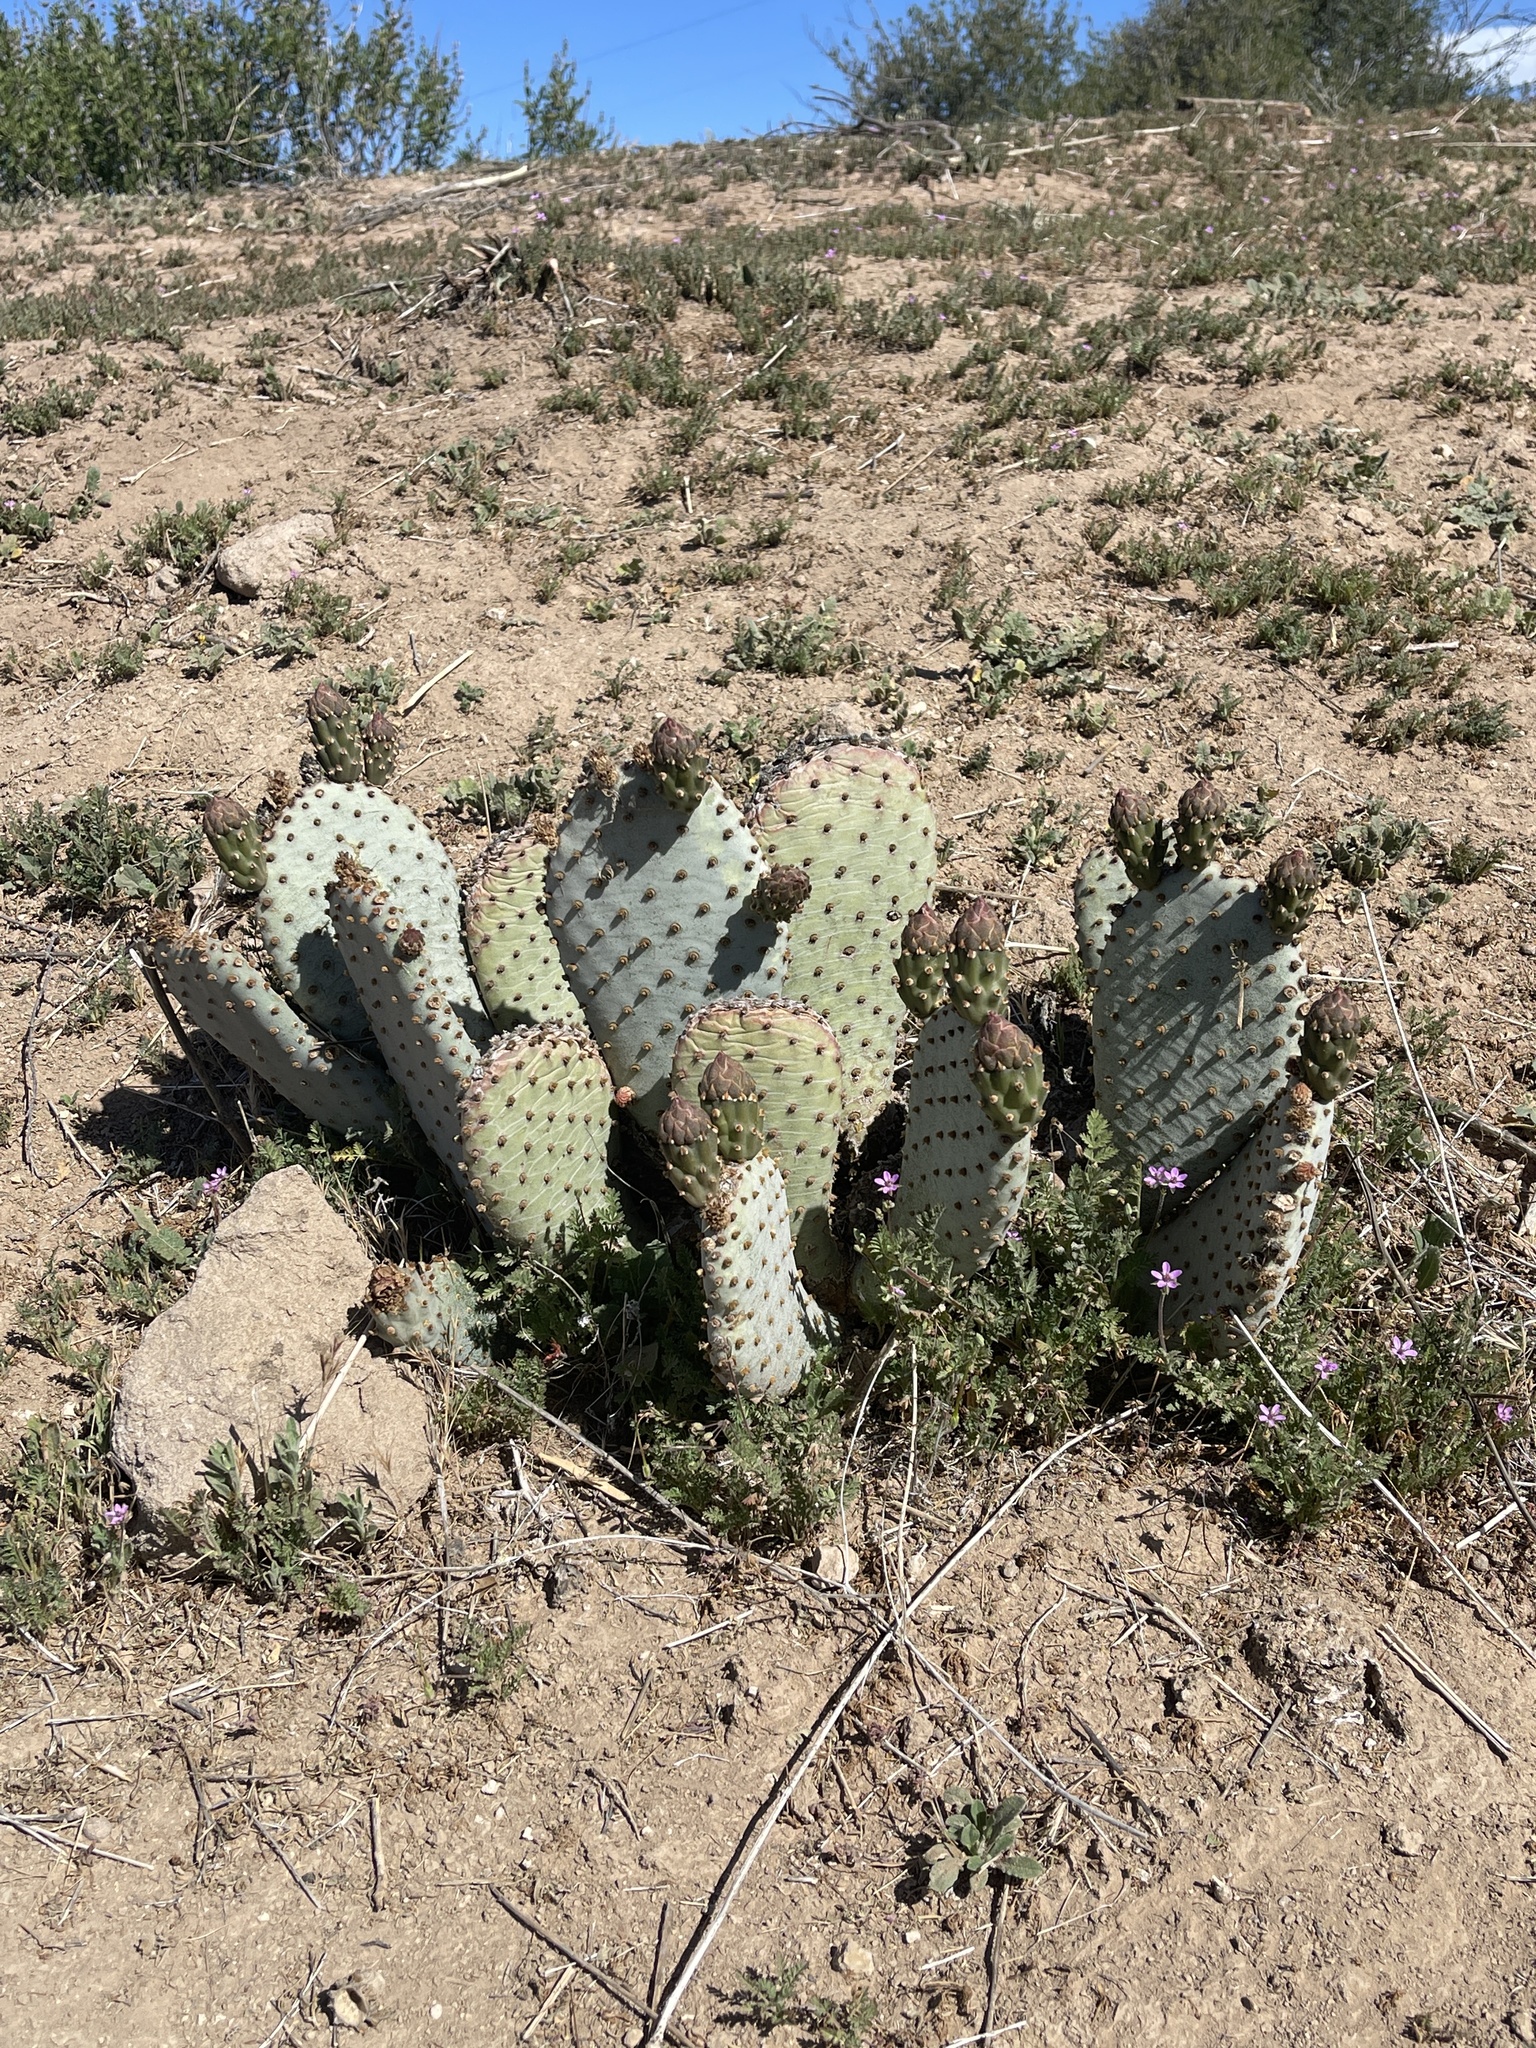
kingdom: Plantae
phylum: Tracheophyta
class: Magnoliopsida
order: Caryophyllales
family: Cactaceae
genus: Opuntia
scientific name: Opuntia basilaris
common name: Beavertail prickly-pear
